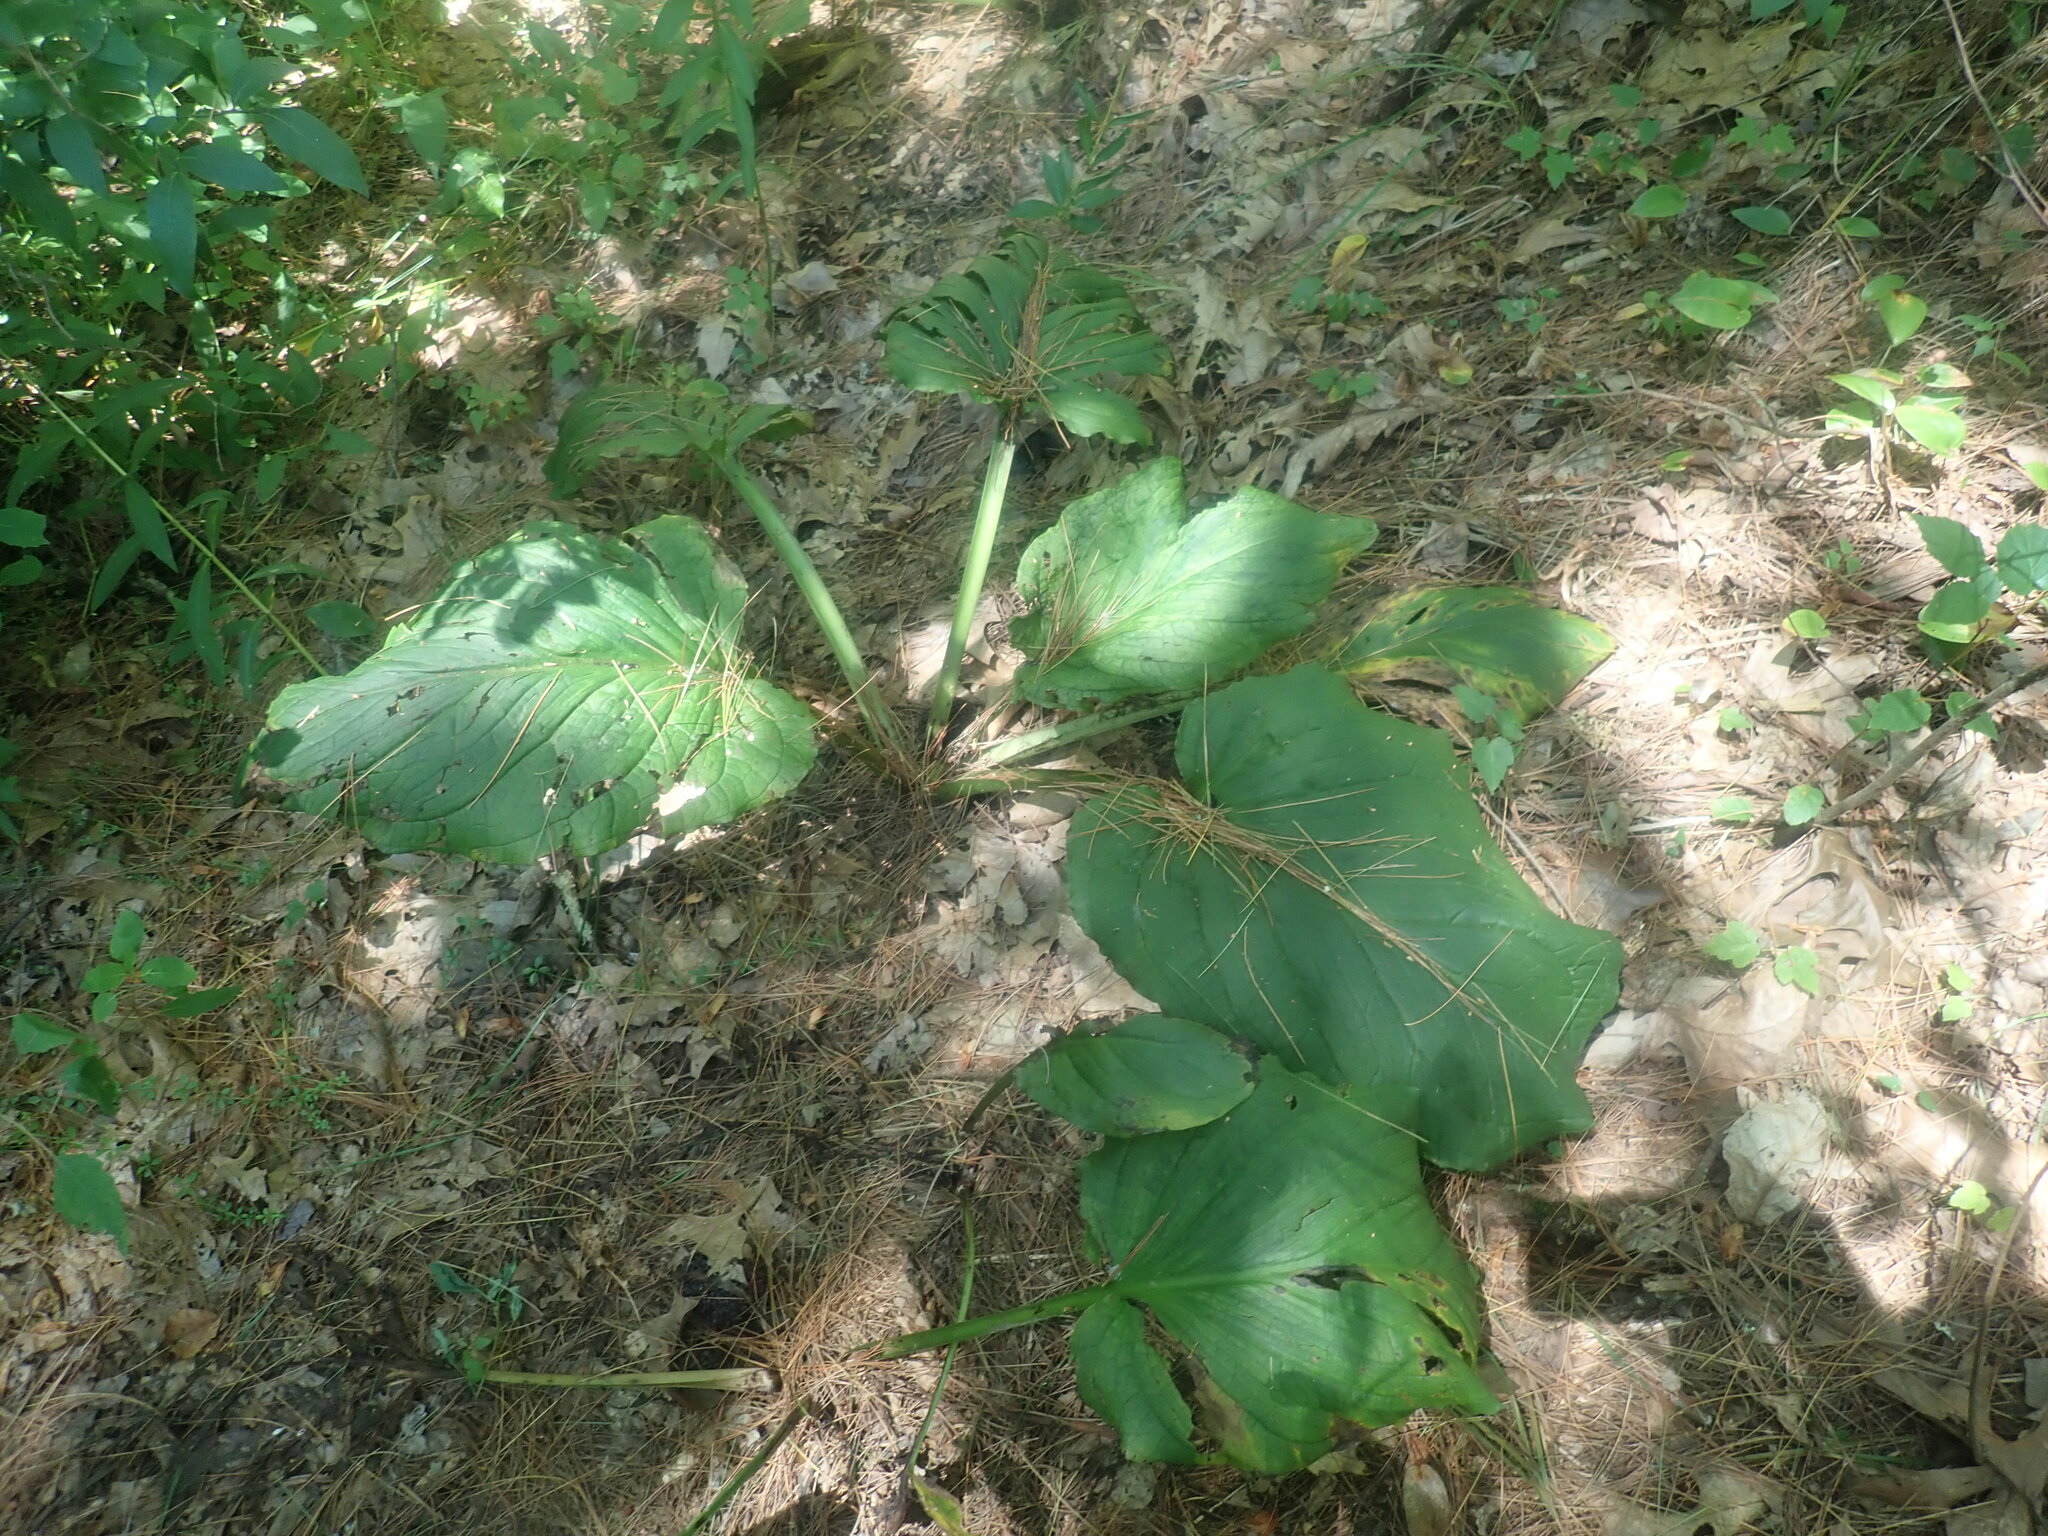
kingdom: Plantae
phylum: Tracheophyta
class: Liliopsida
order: Alismatales
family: Araceae
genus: Symplocarpus
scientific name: Symplocarpus foetidus
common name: Eastern skunk cabbage
